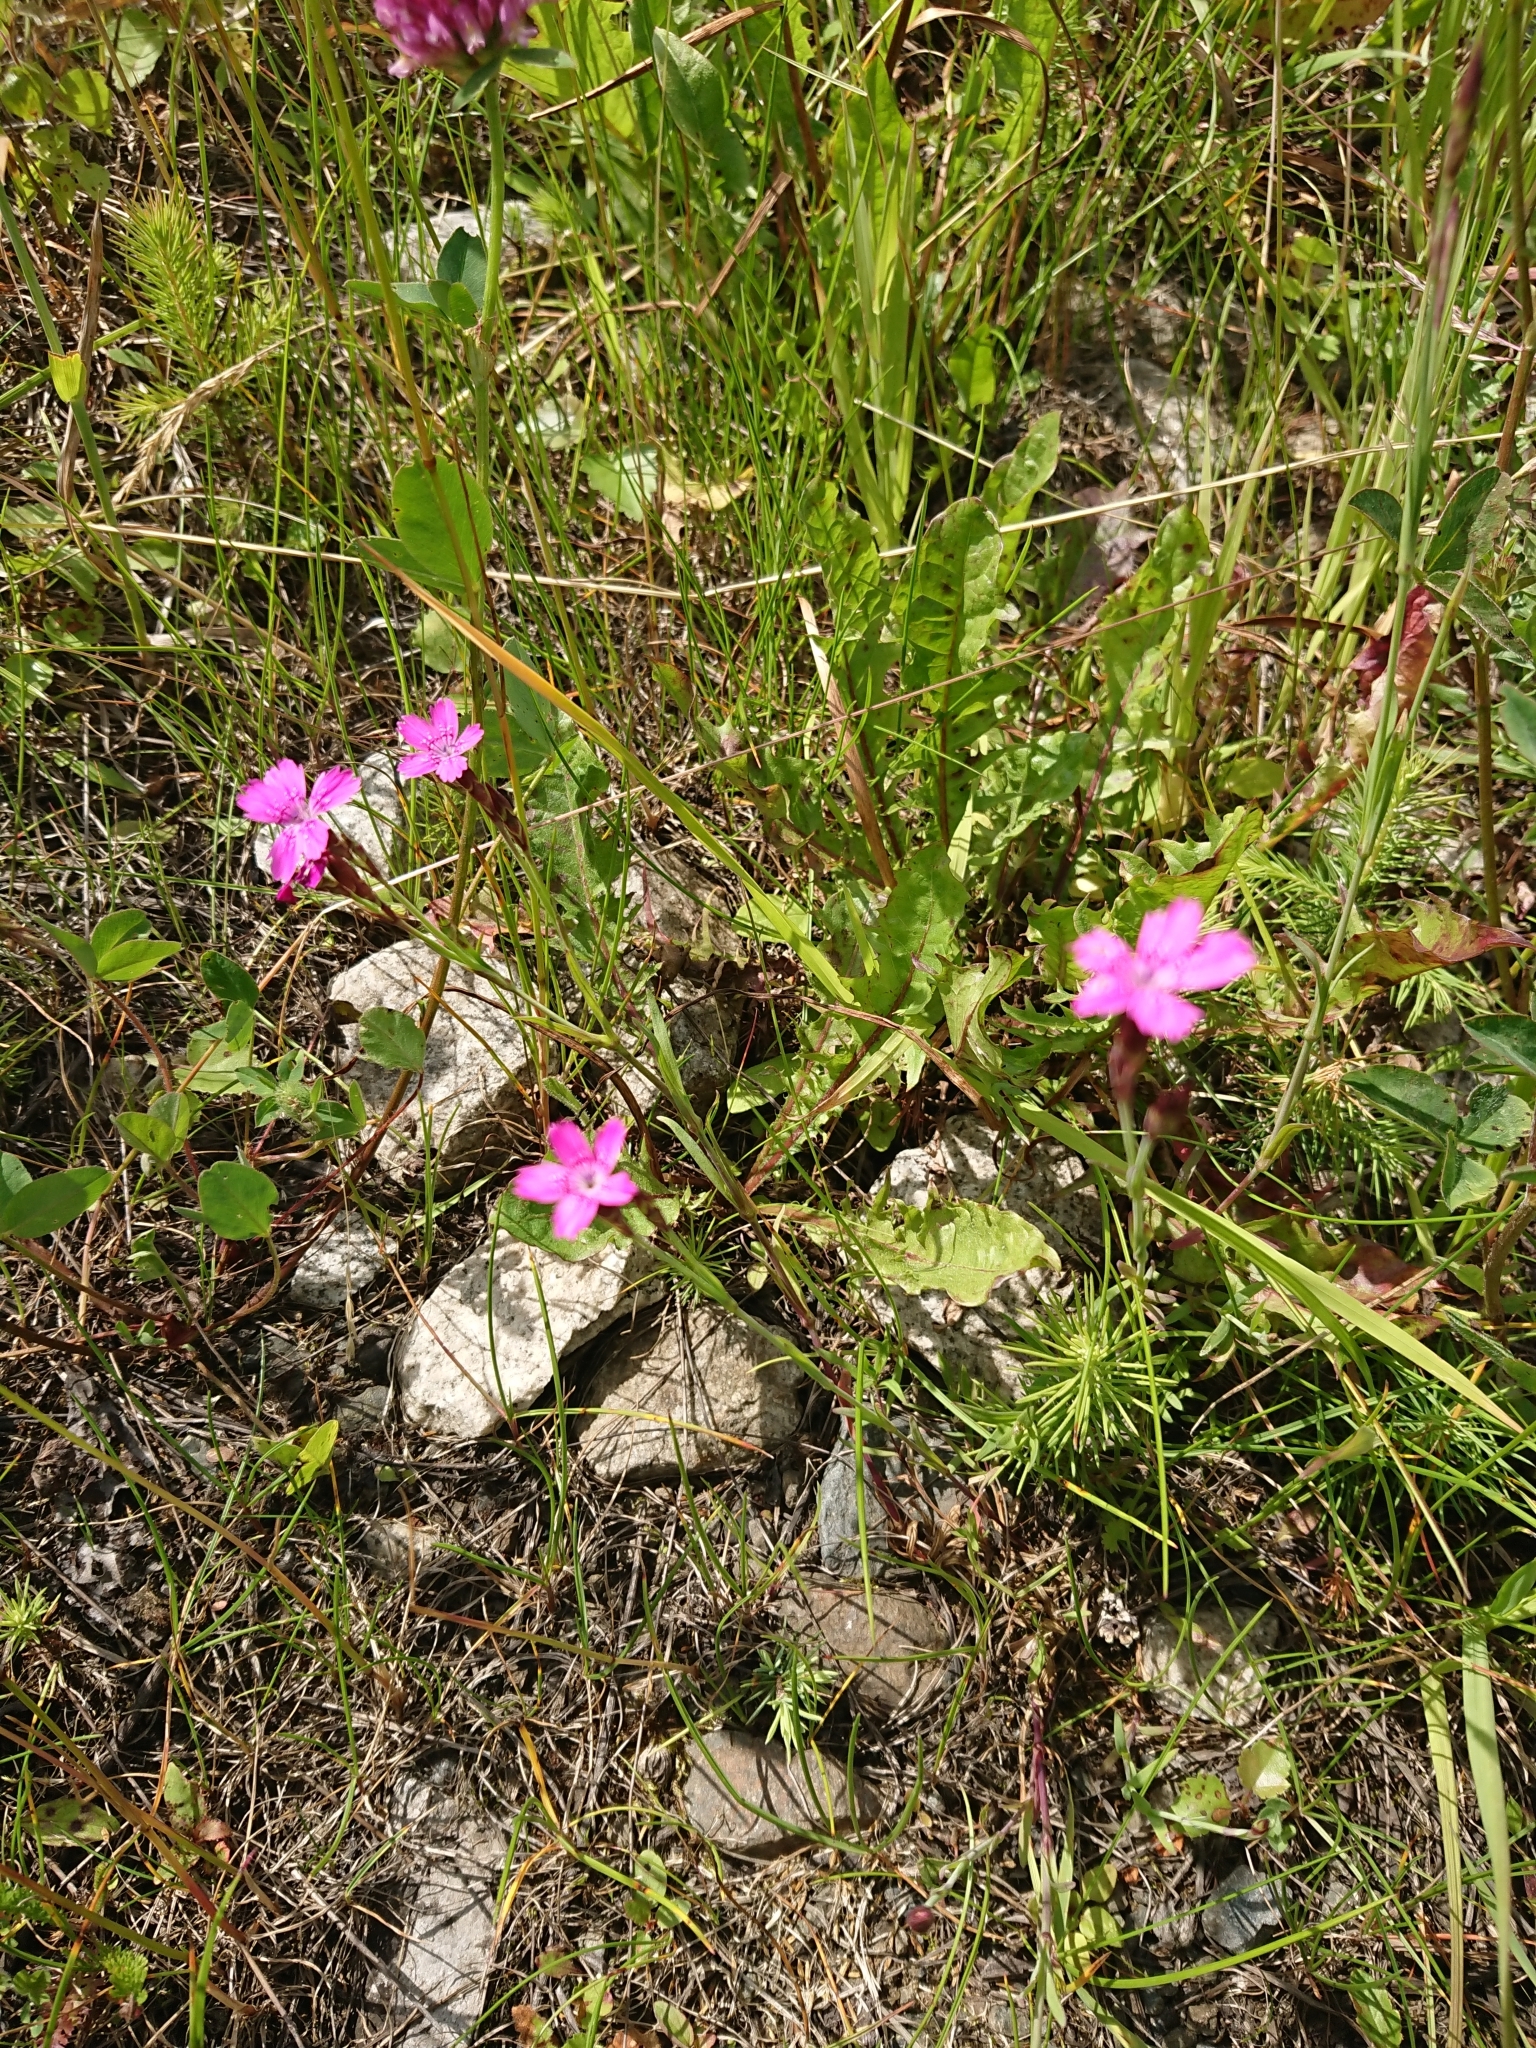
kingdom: Plantae
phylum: Tracheophyta
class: Magnoliopsida
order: Caryophyllales
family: Caryophyllaceae
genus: Dianthus
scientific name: Dianthus deltoides
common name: Maiden pink
